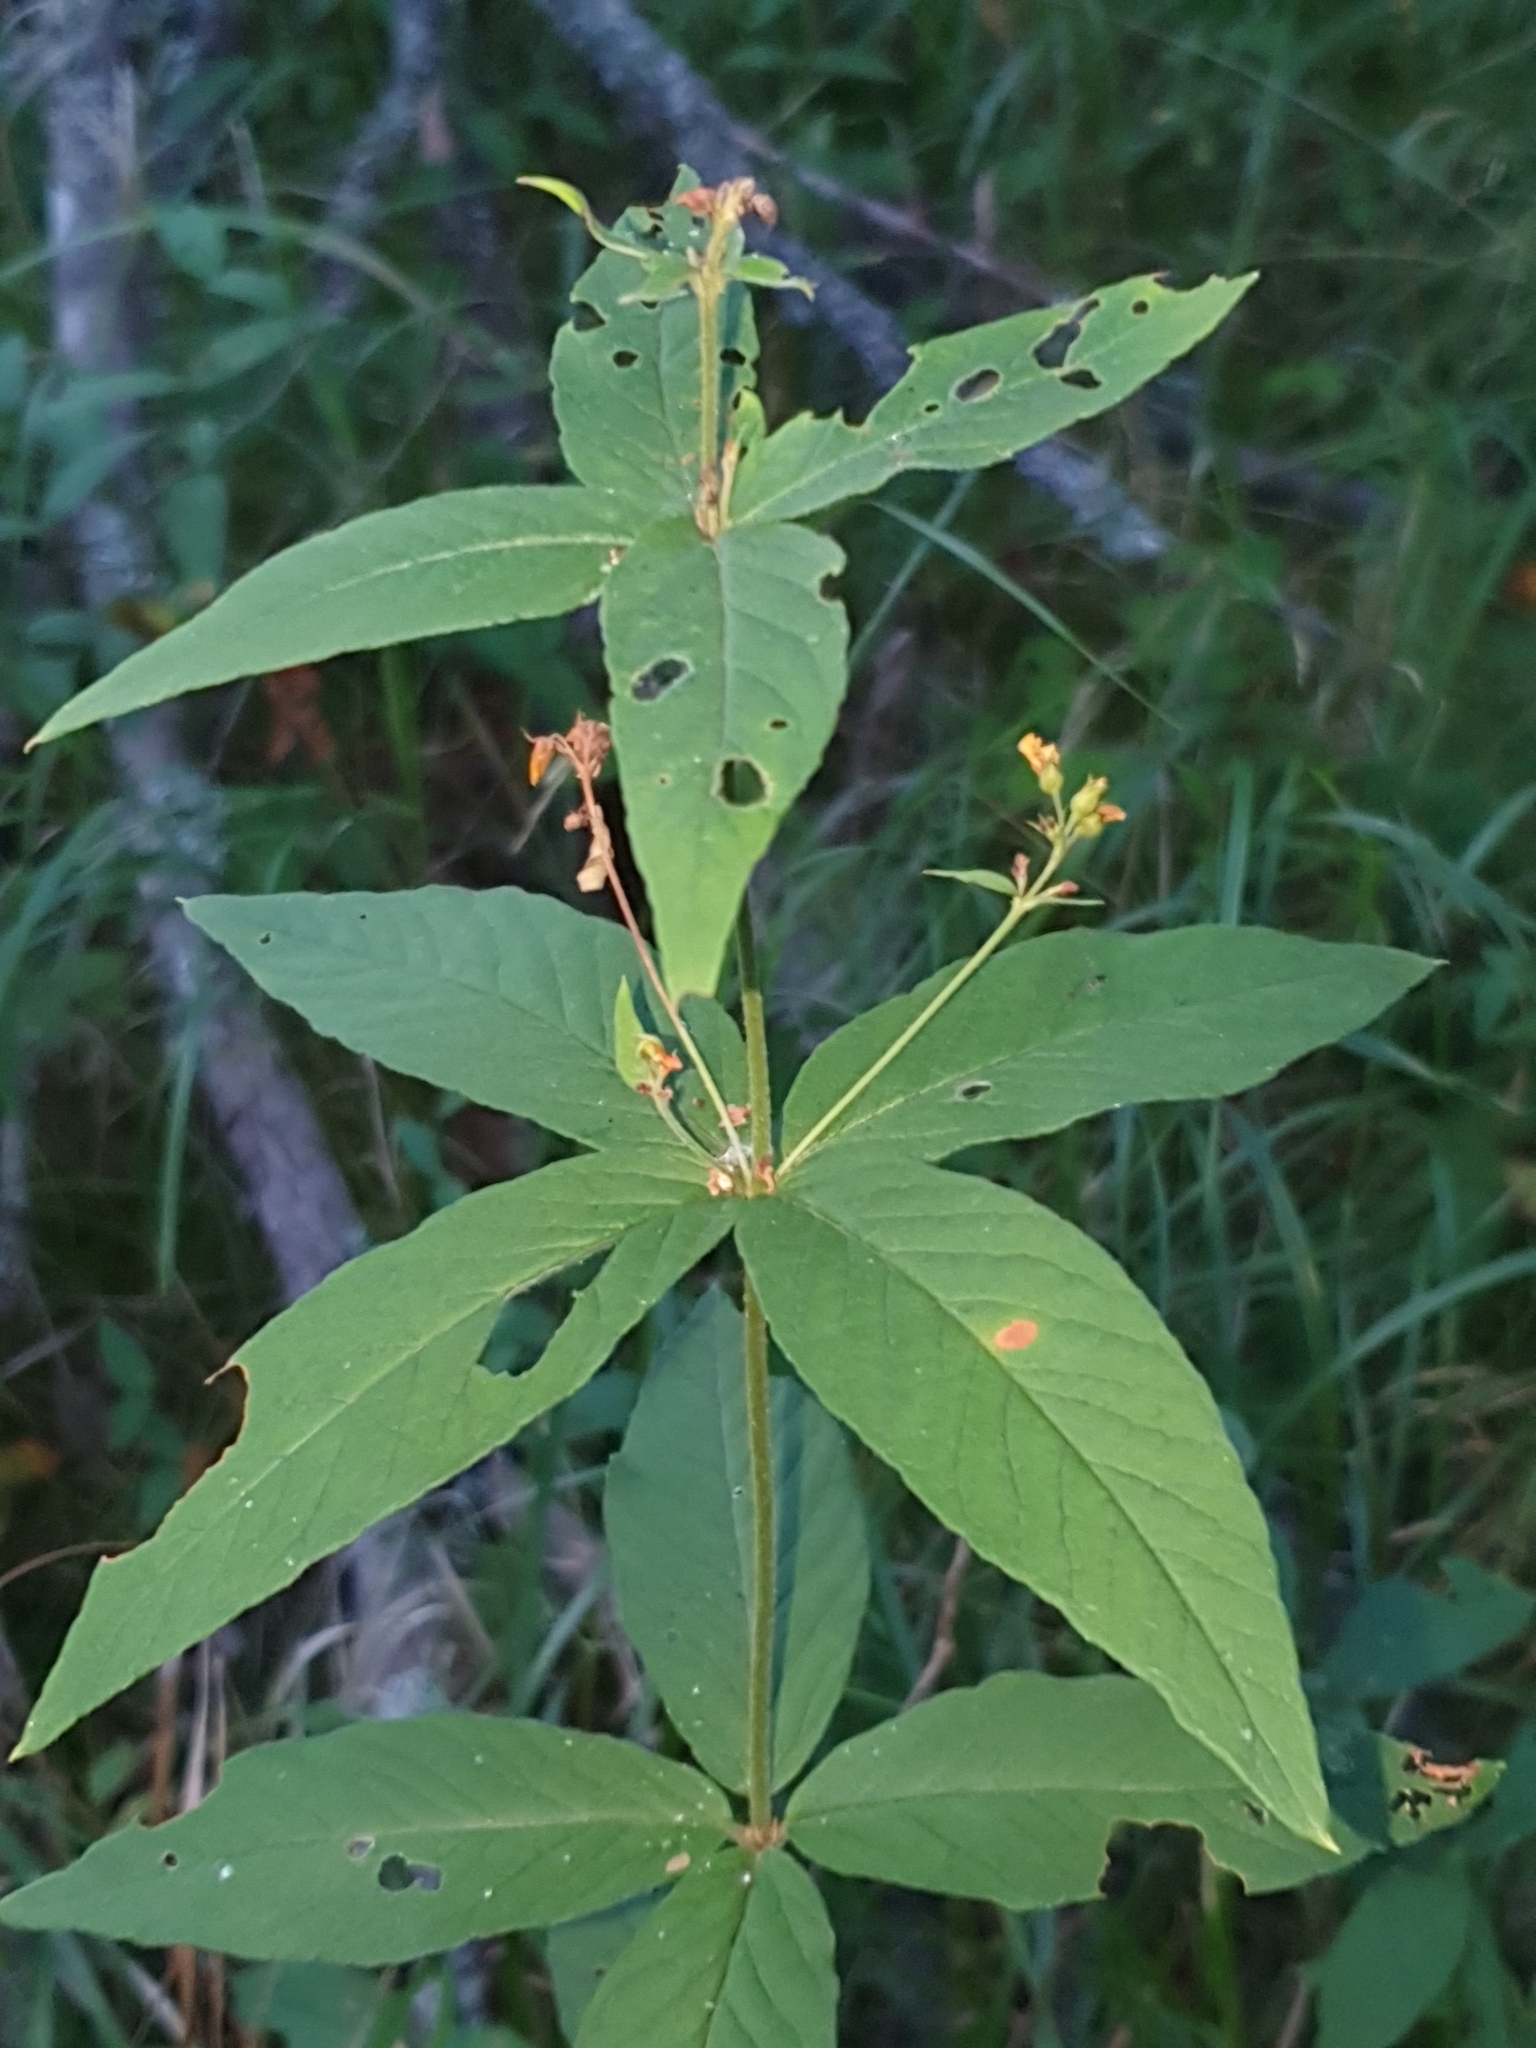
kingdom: Plantae
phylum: Tracheophyta
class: Magnoliopsida
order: Ericales
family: Primulaceae
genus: Lysimachia
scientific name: Lysimachia vulgaris
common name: Yellow loosestrife
